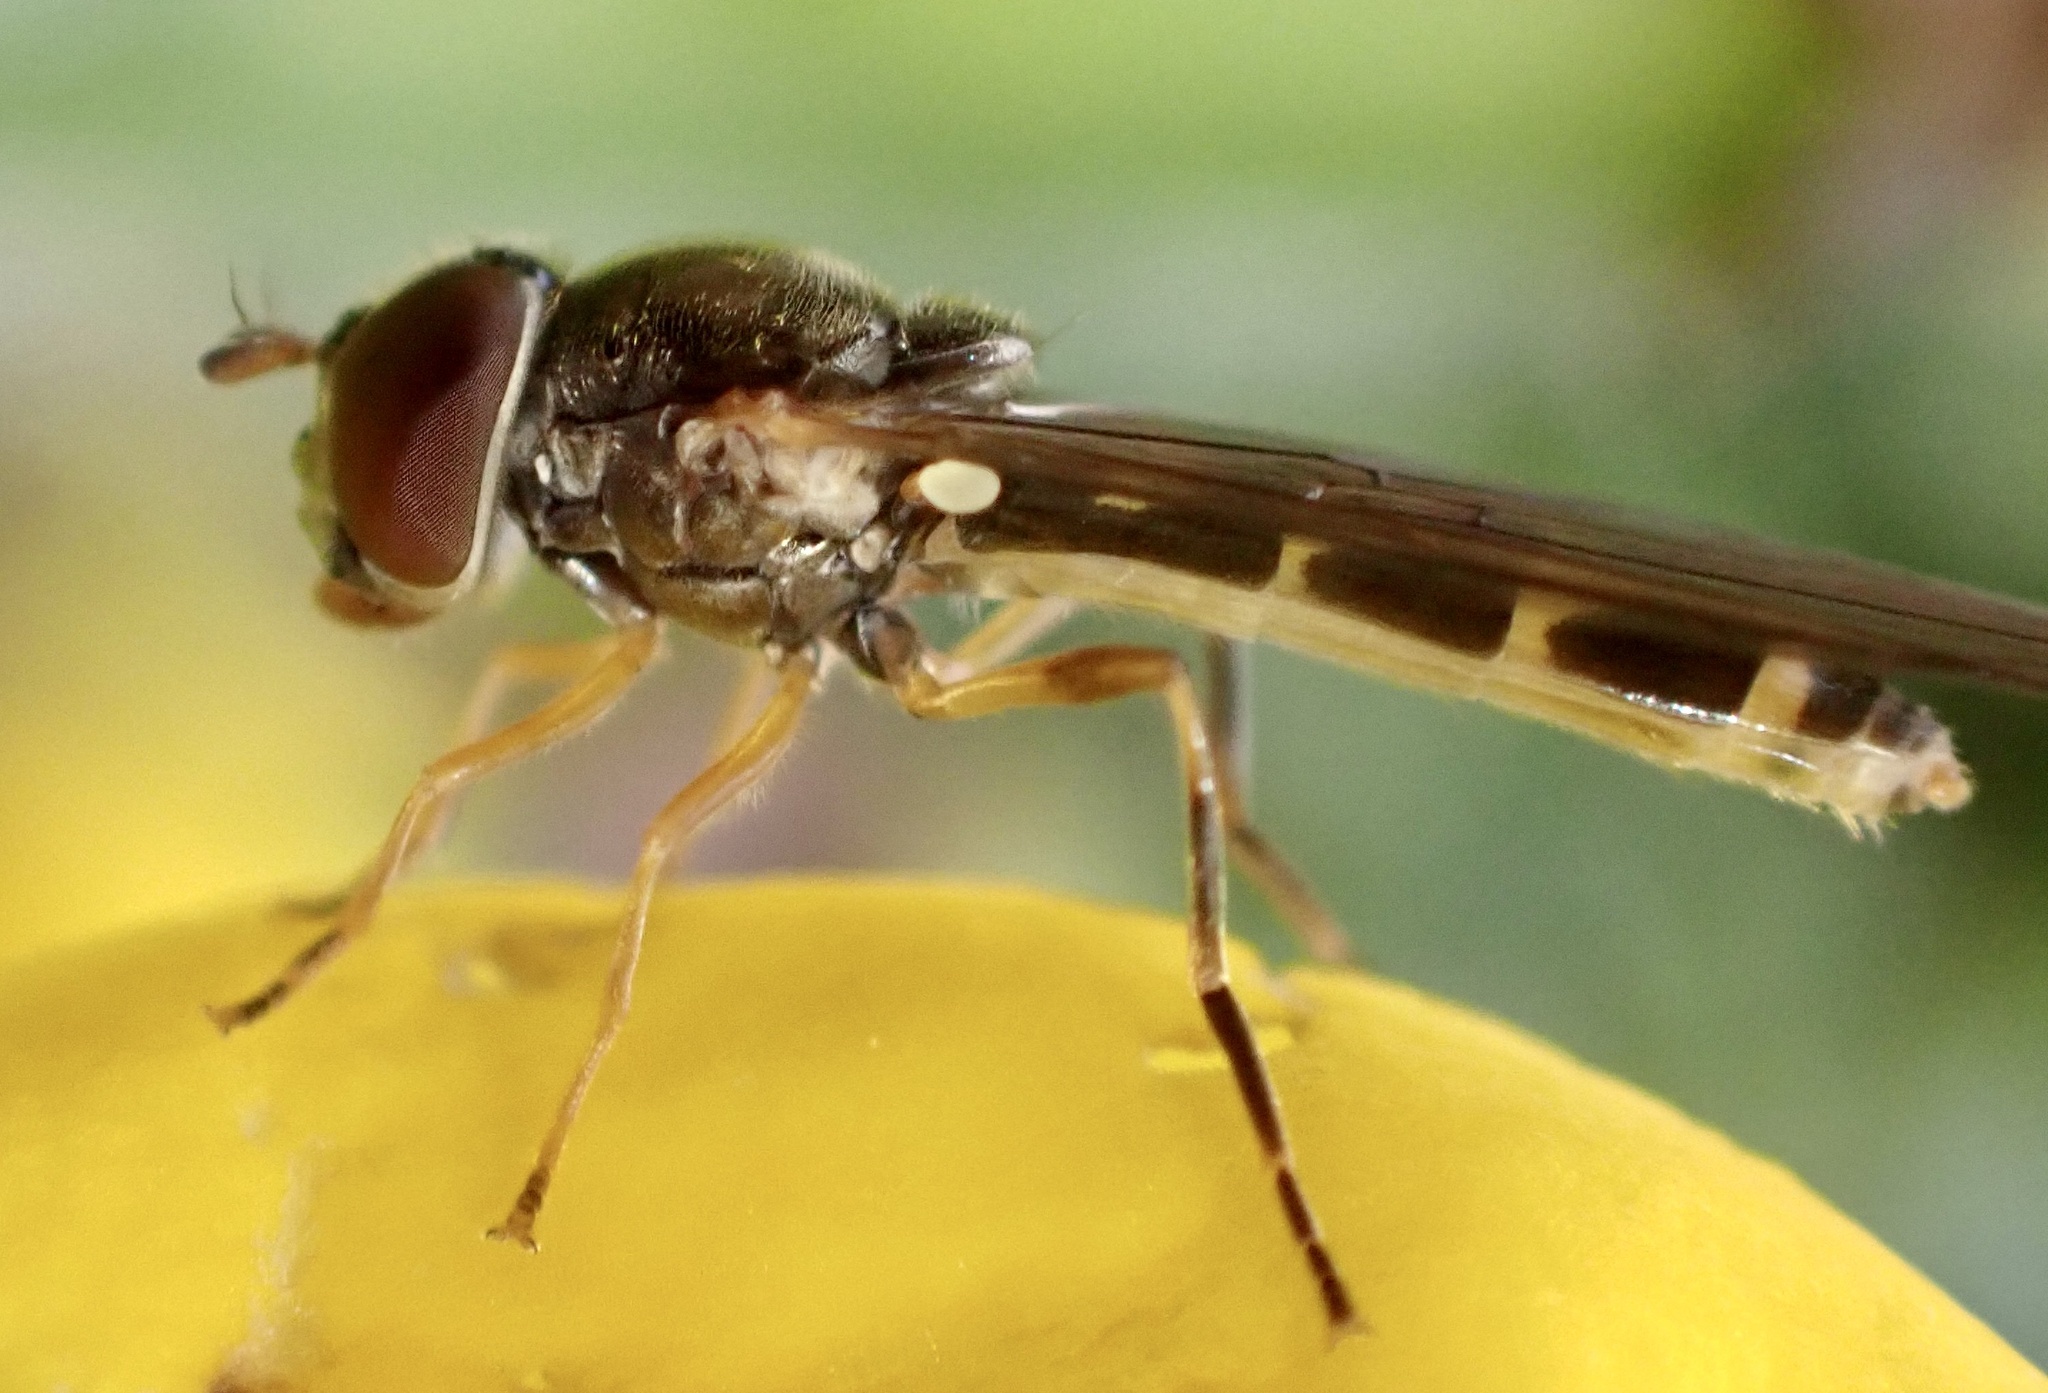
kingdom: Animalia
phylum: Arthropoda
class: Insecta
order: Diptera
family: Syrphidae
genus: Melanostoma
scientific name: Melanostoma
